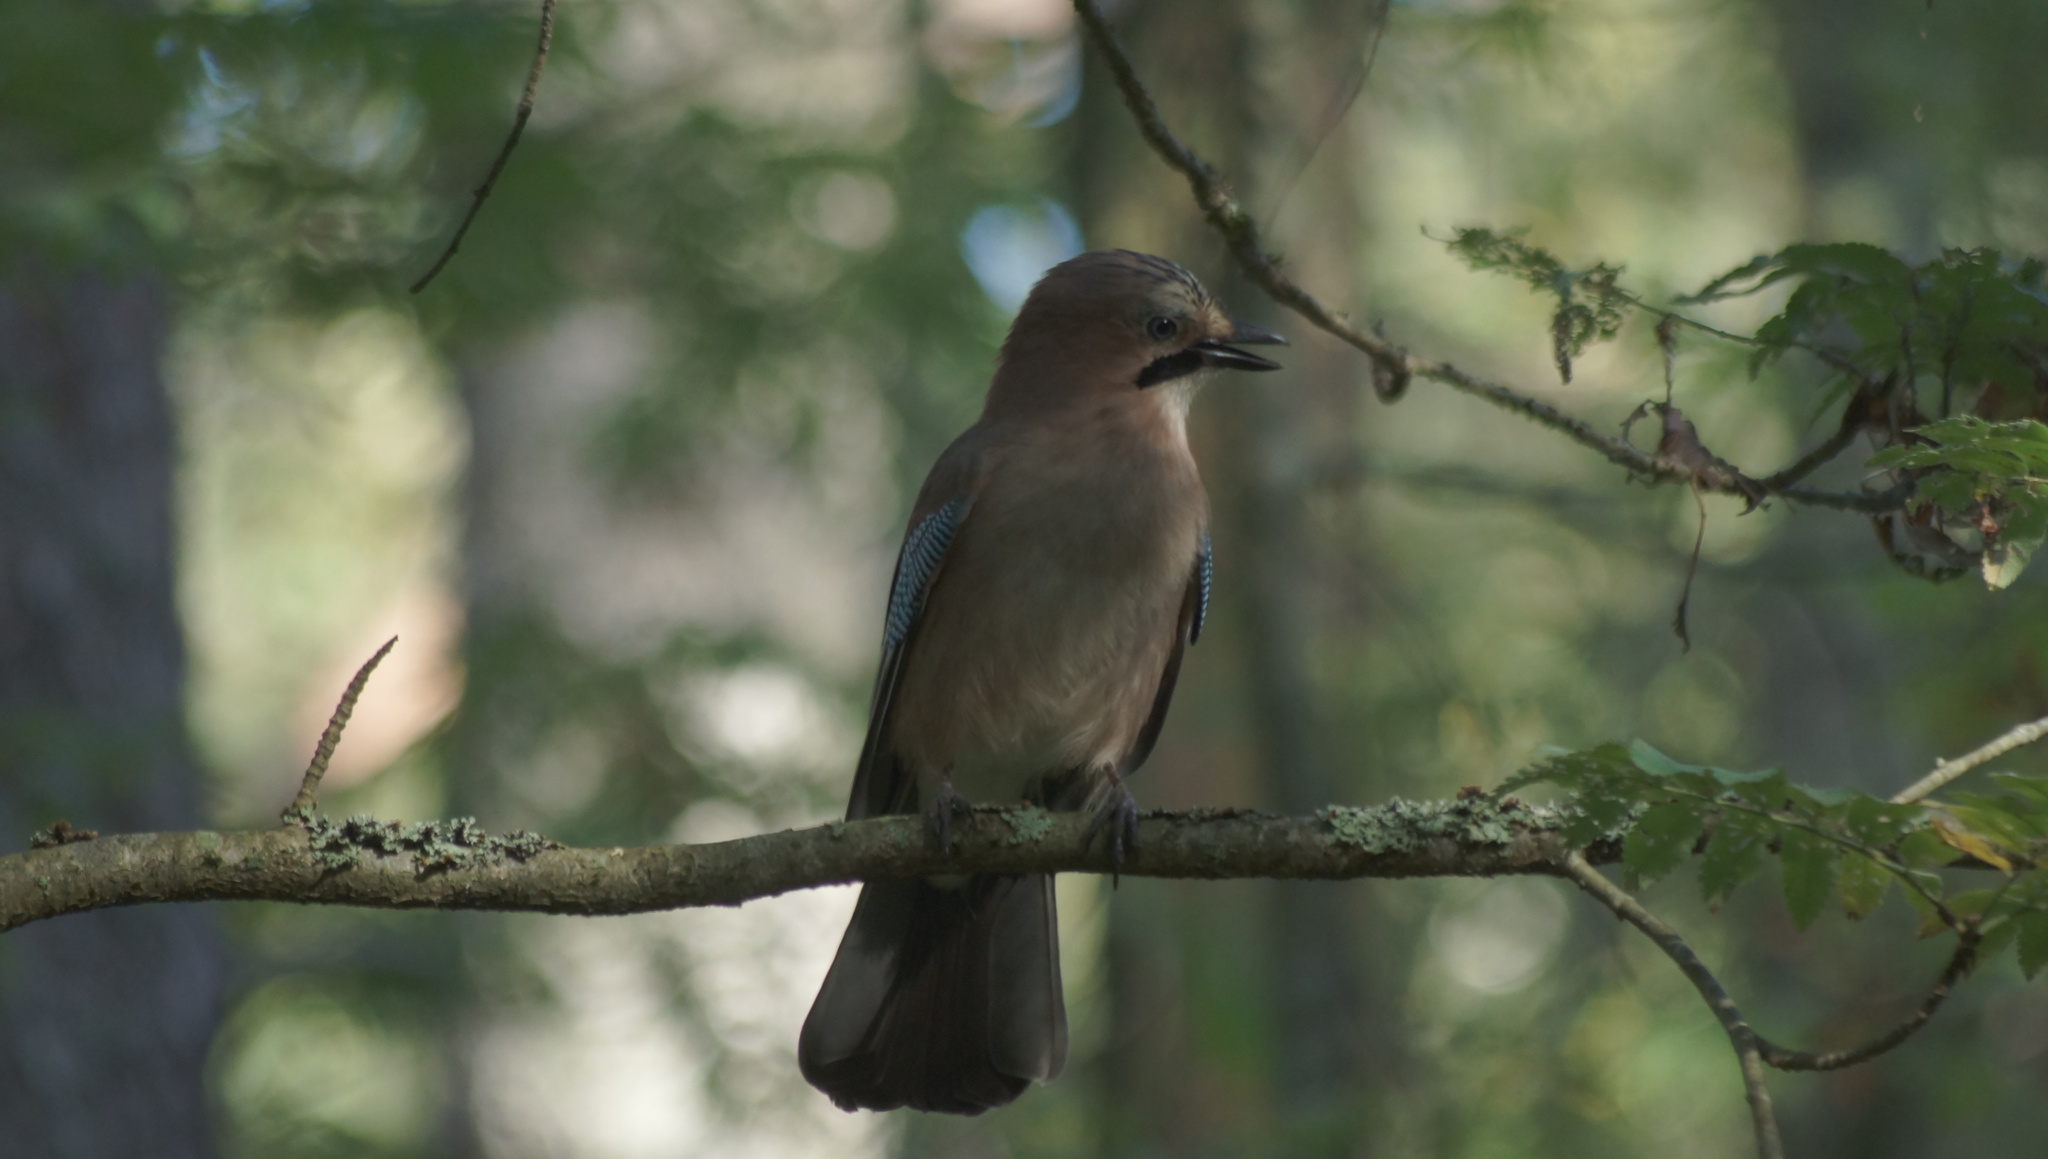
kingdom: Animalia
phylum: Chordata
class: Aves
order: Passeriformes
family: Corvidae
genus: Garrulus
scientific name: Garrulus glandarius
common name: Eurasian jay
